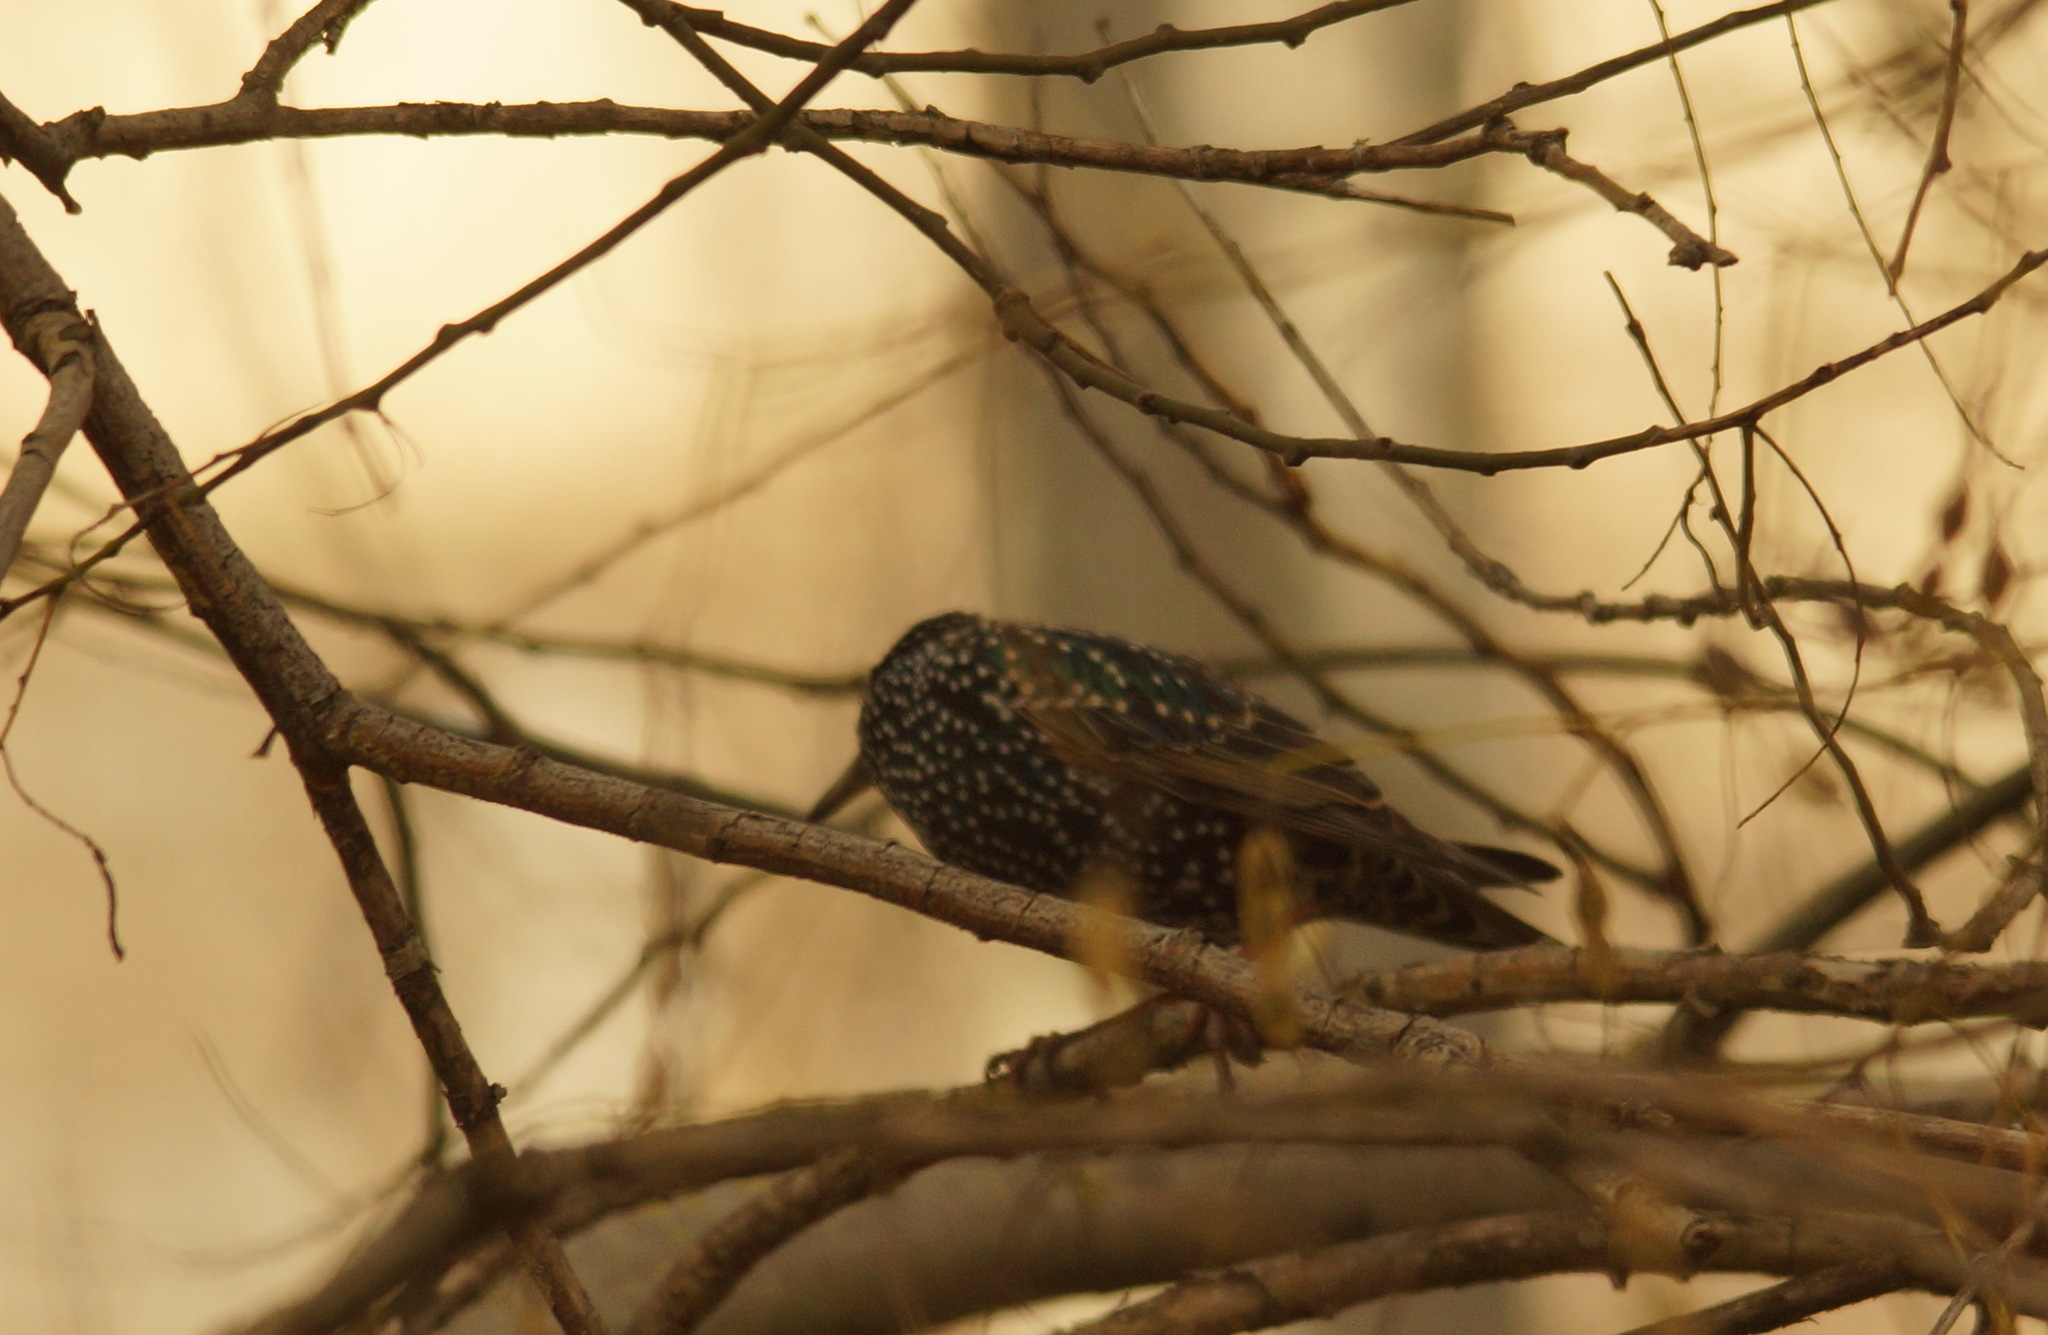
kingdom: Animalia
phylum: Chordata
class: Aves
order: Passeriformes
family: Sturnidae
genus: Sturnus
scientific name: Sturnus vulgaris
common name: Common starling
